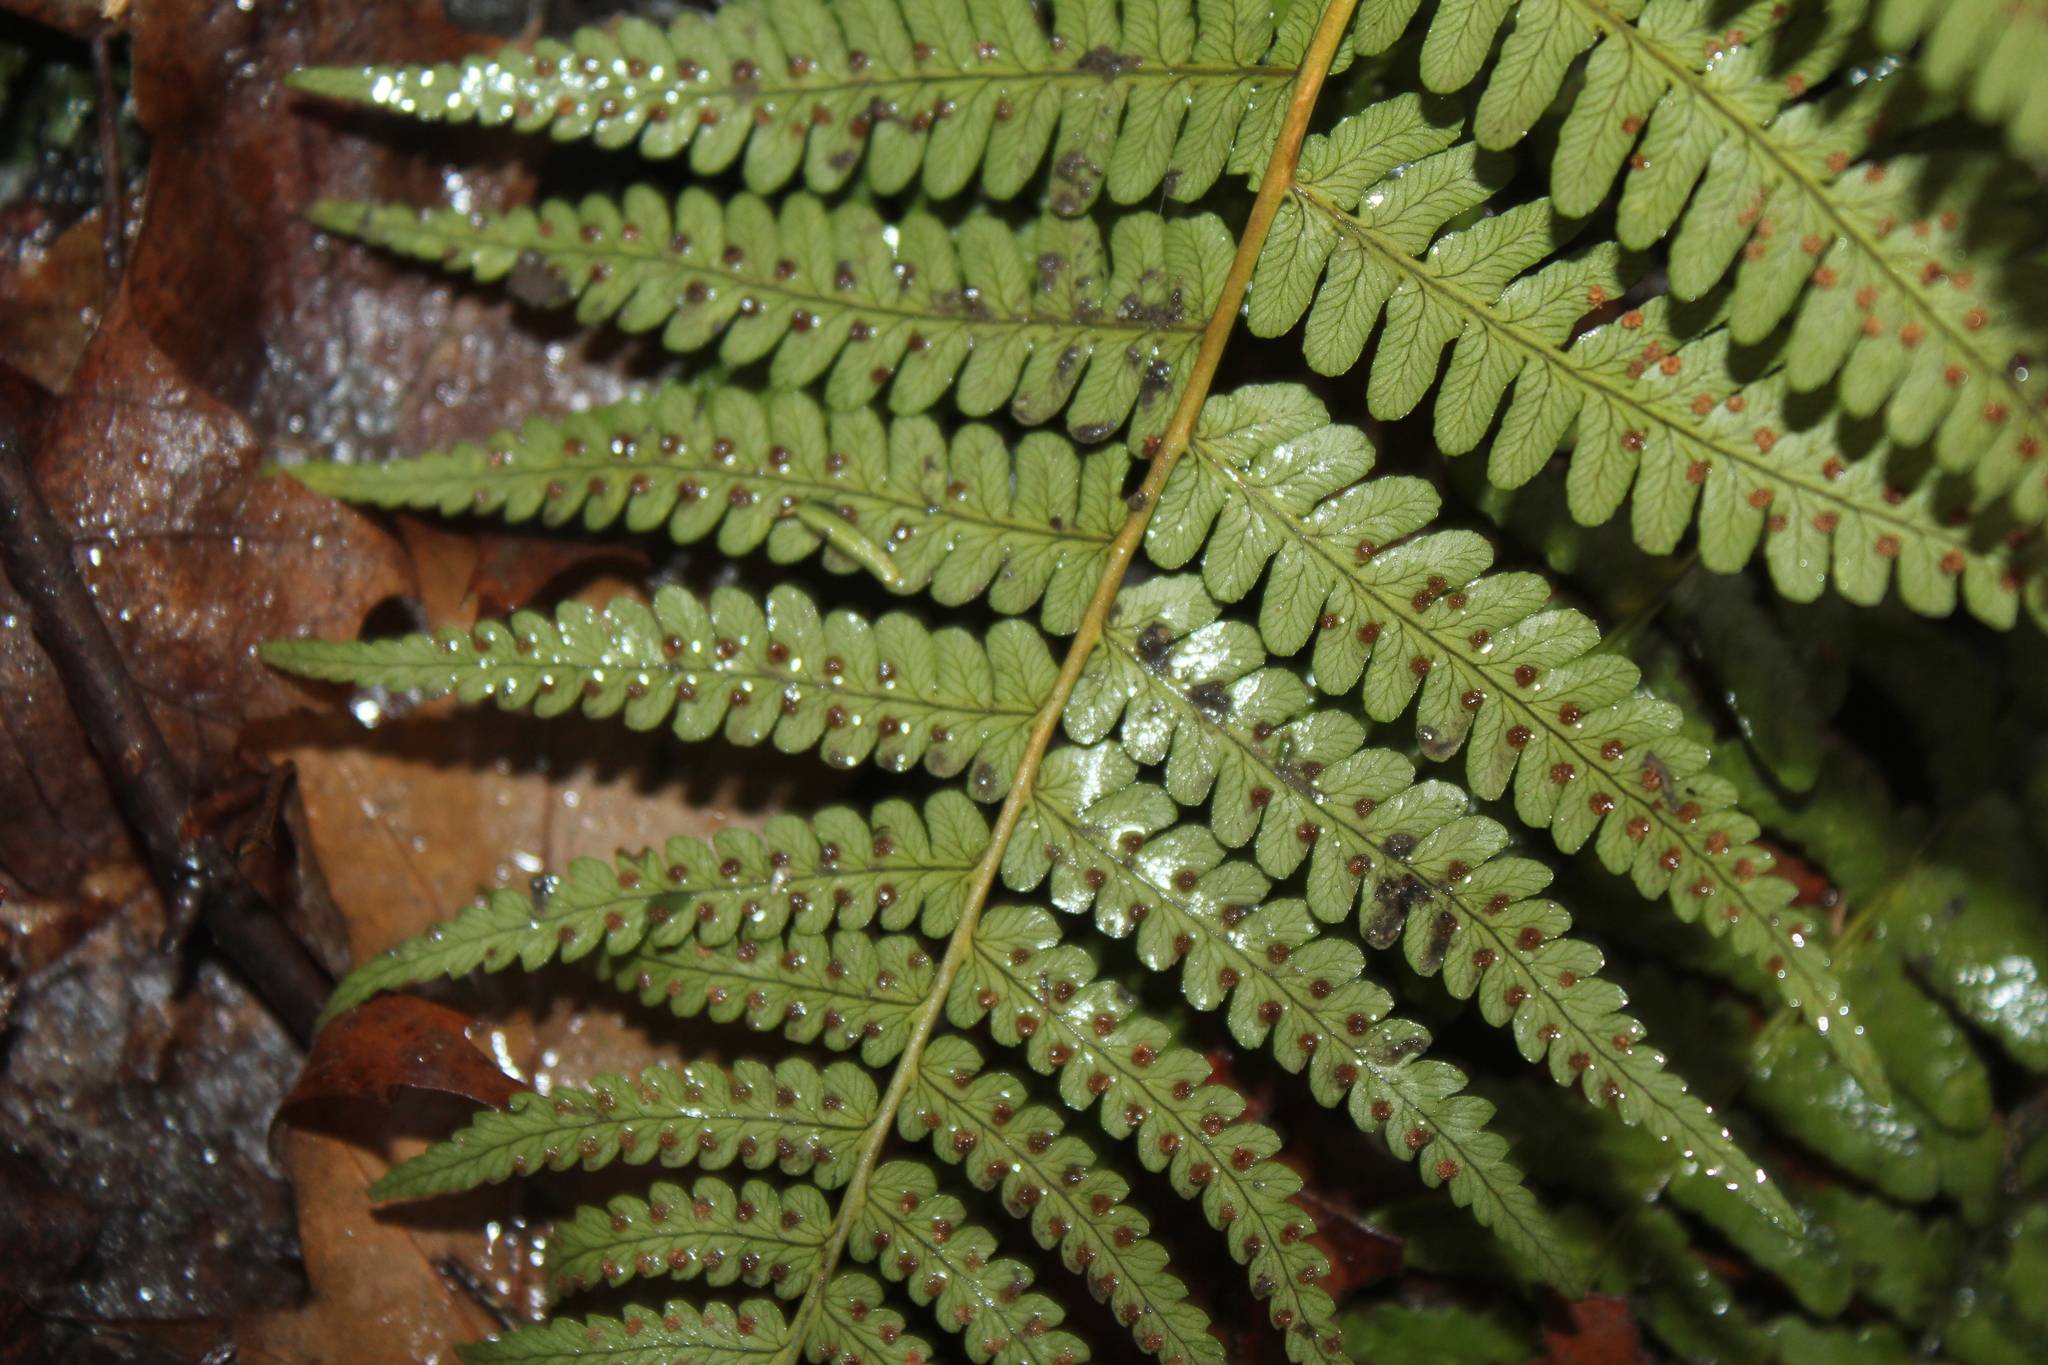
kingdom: Plantae
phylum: Tracheophyta
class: Polypodiopsida
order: Polypodiales
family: Dryopteridaceae
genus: Dryopteris
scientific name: Dryopteris marginalis
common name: Marginal wood fern
